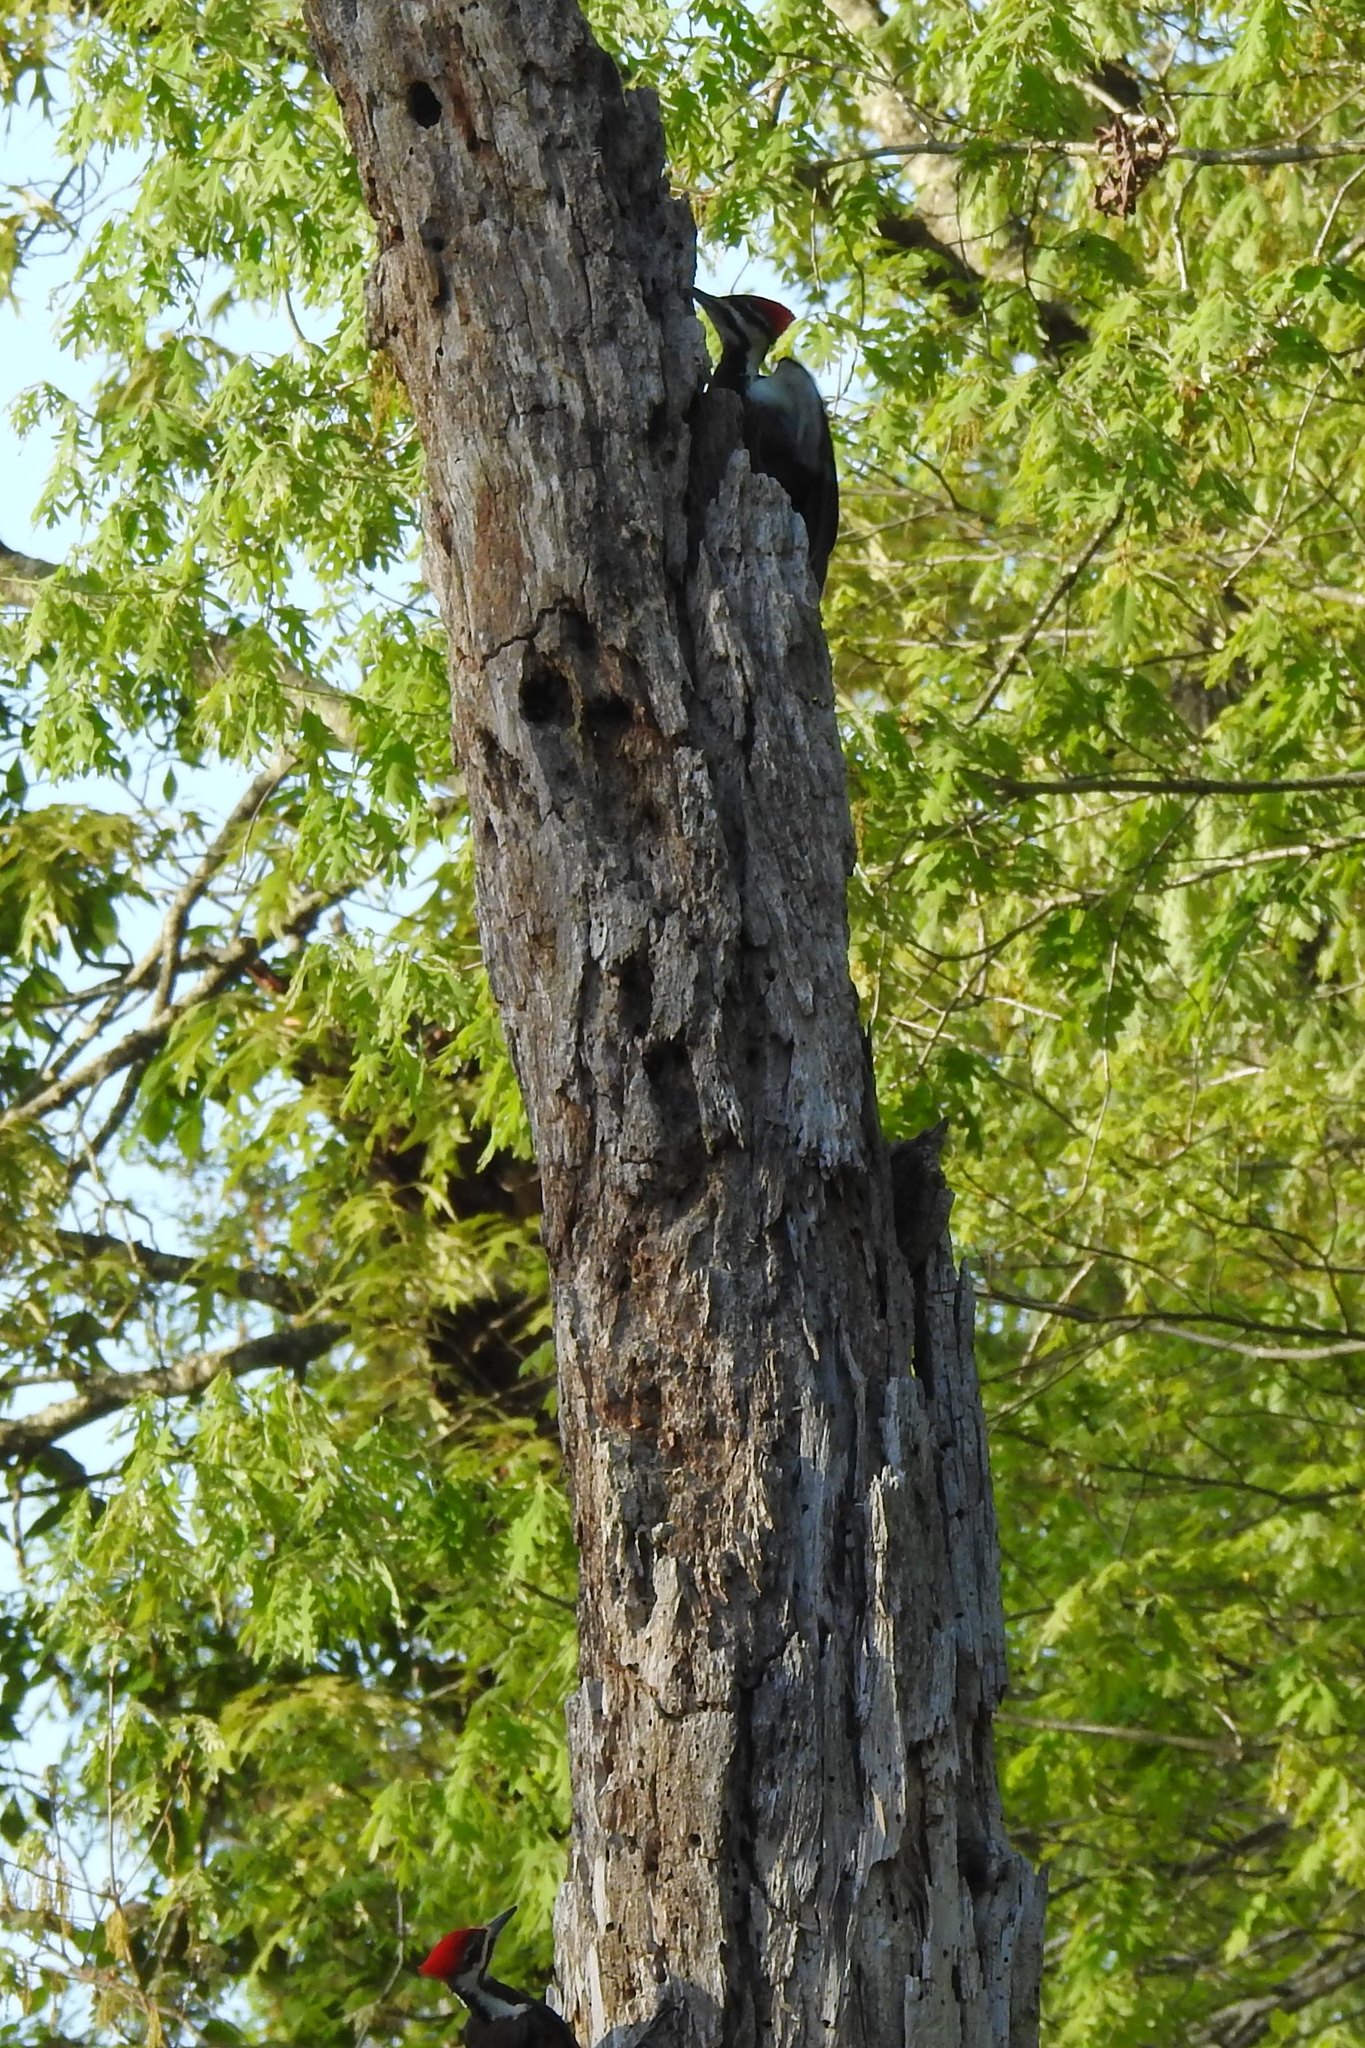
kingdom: Animalia
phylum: Chordata
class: Aves
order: Piciformes
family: Picidae
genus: Dryocopus
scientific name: Dryocopus pileatus
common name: Pileated woodpecker
